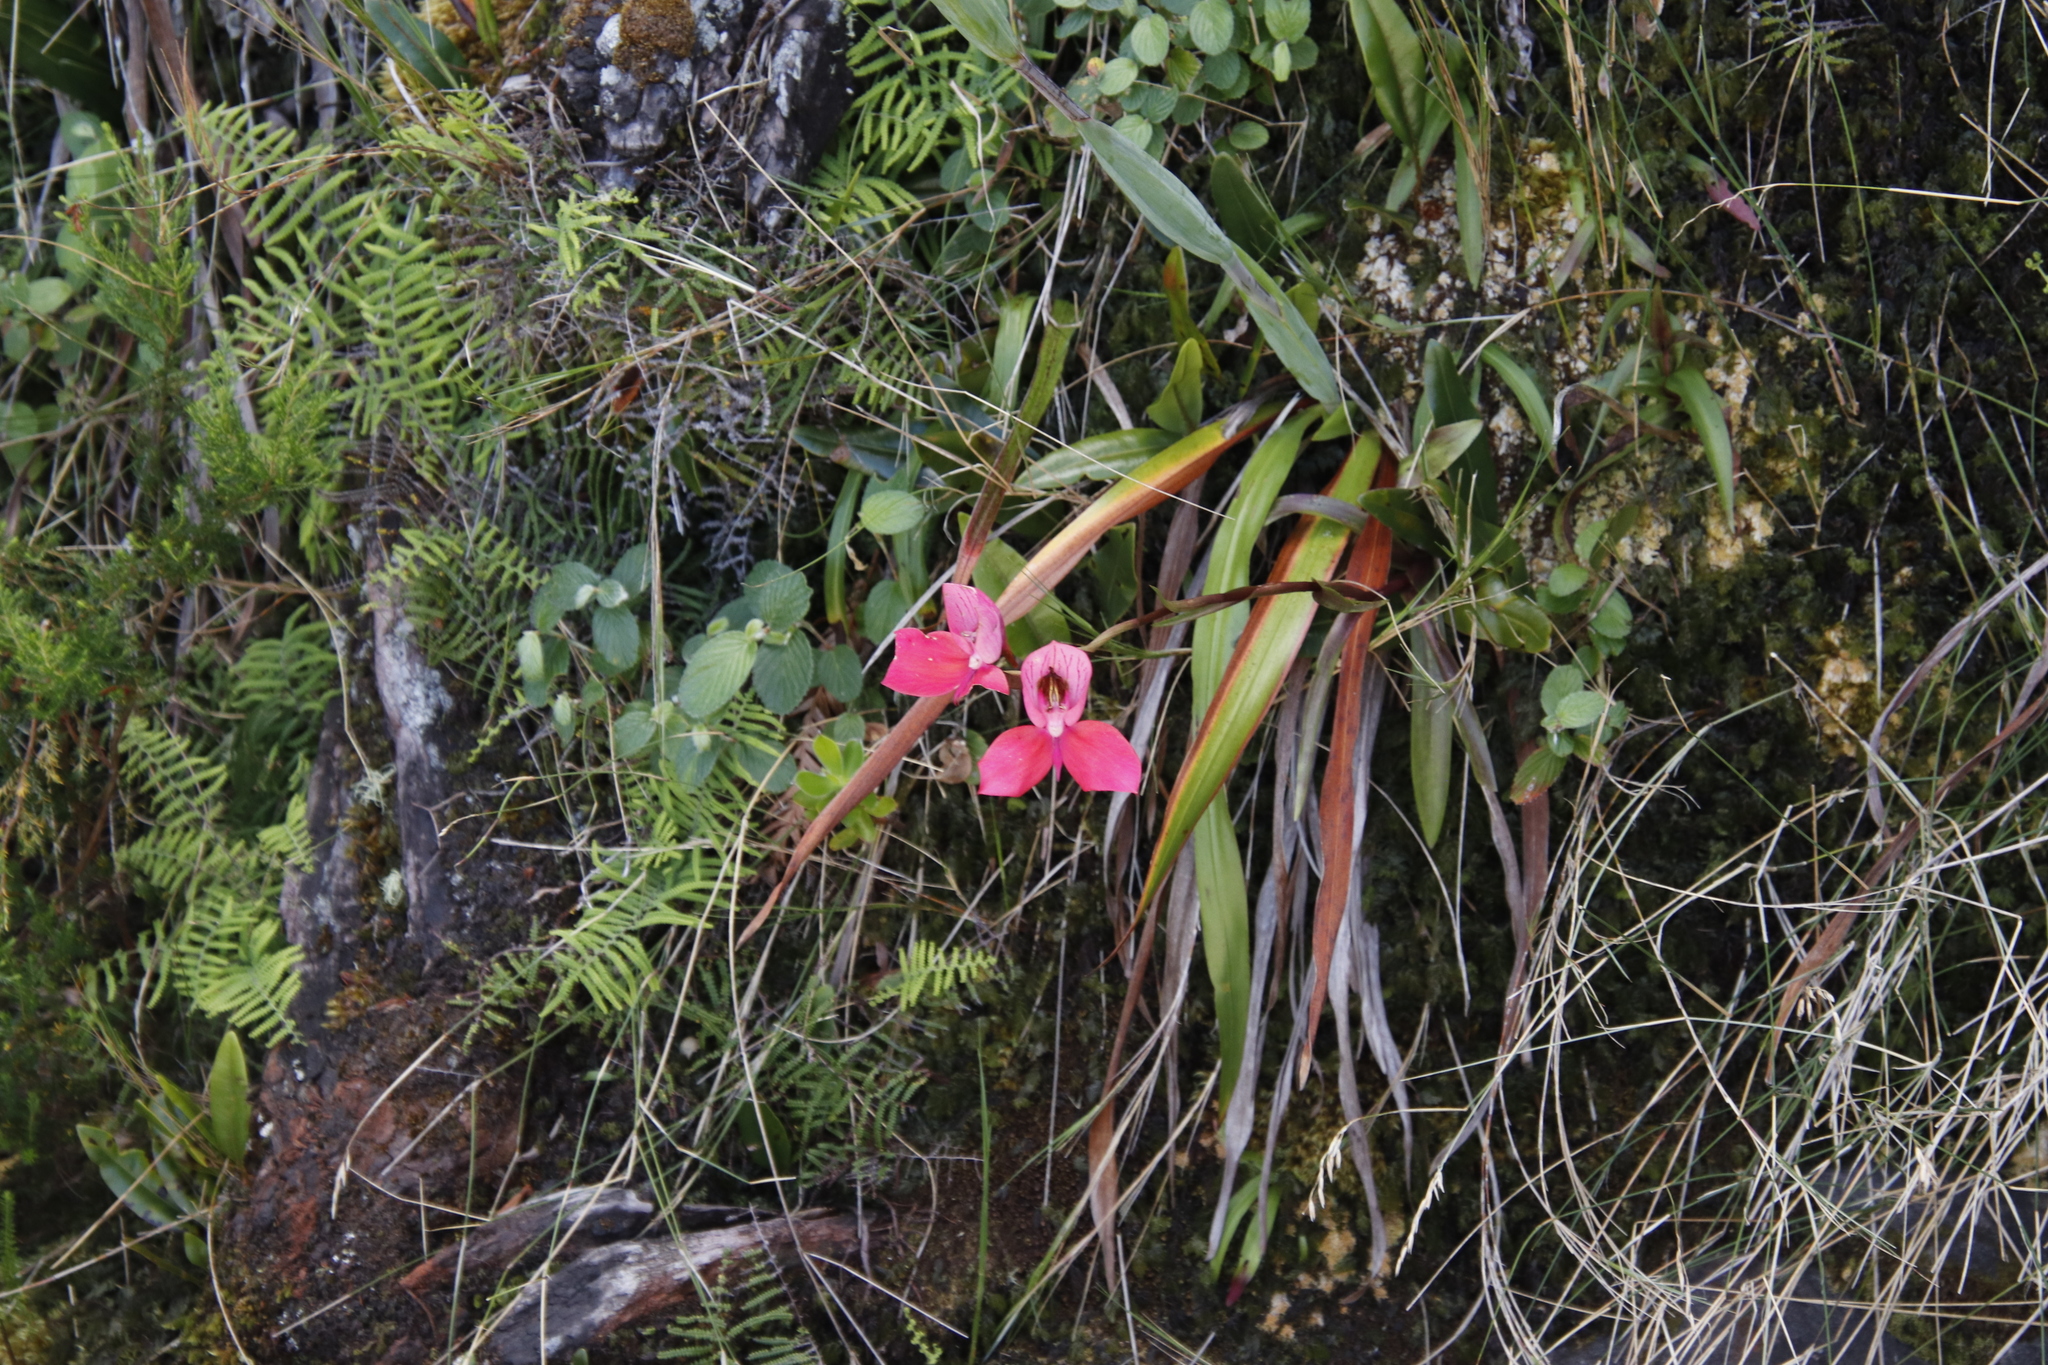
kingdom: Plantae
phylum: Tracheophyta
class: Liliopsida
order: Asparagales
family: Orchidaceae
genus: Disa
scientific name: Disa uniflora
